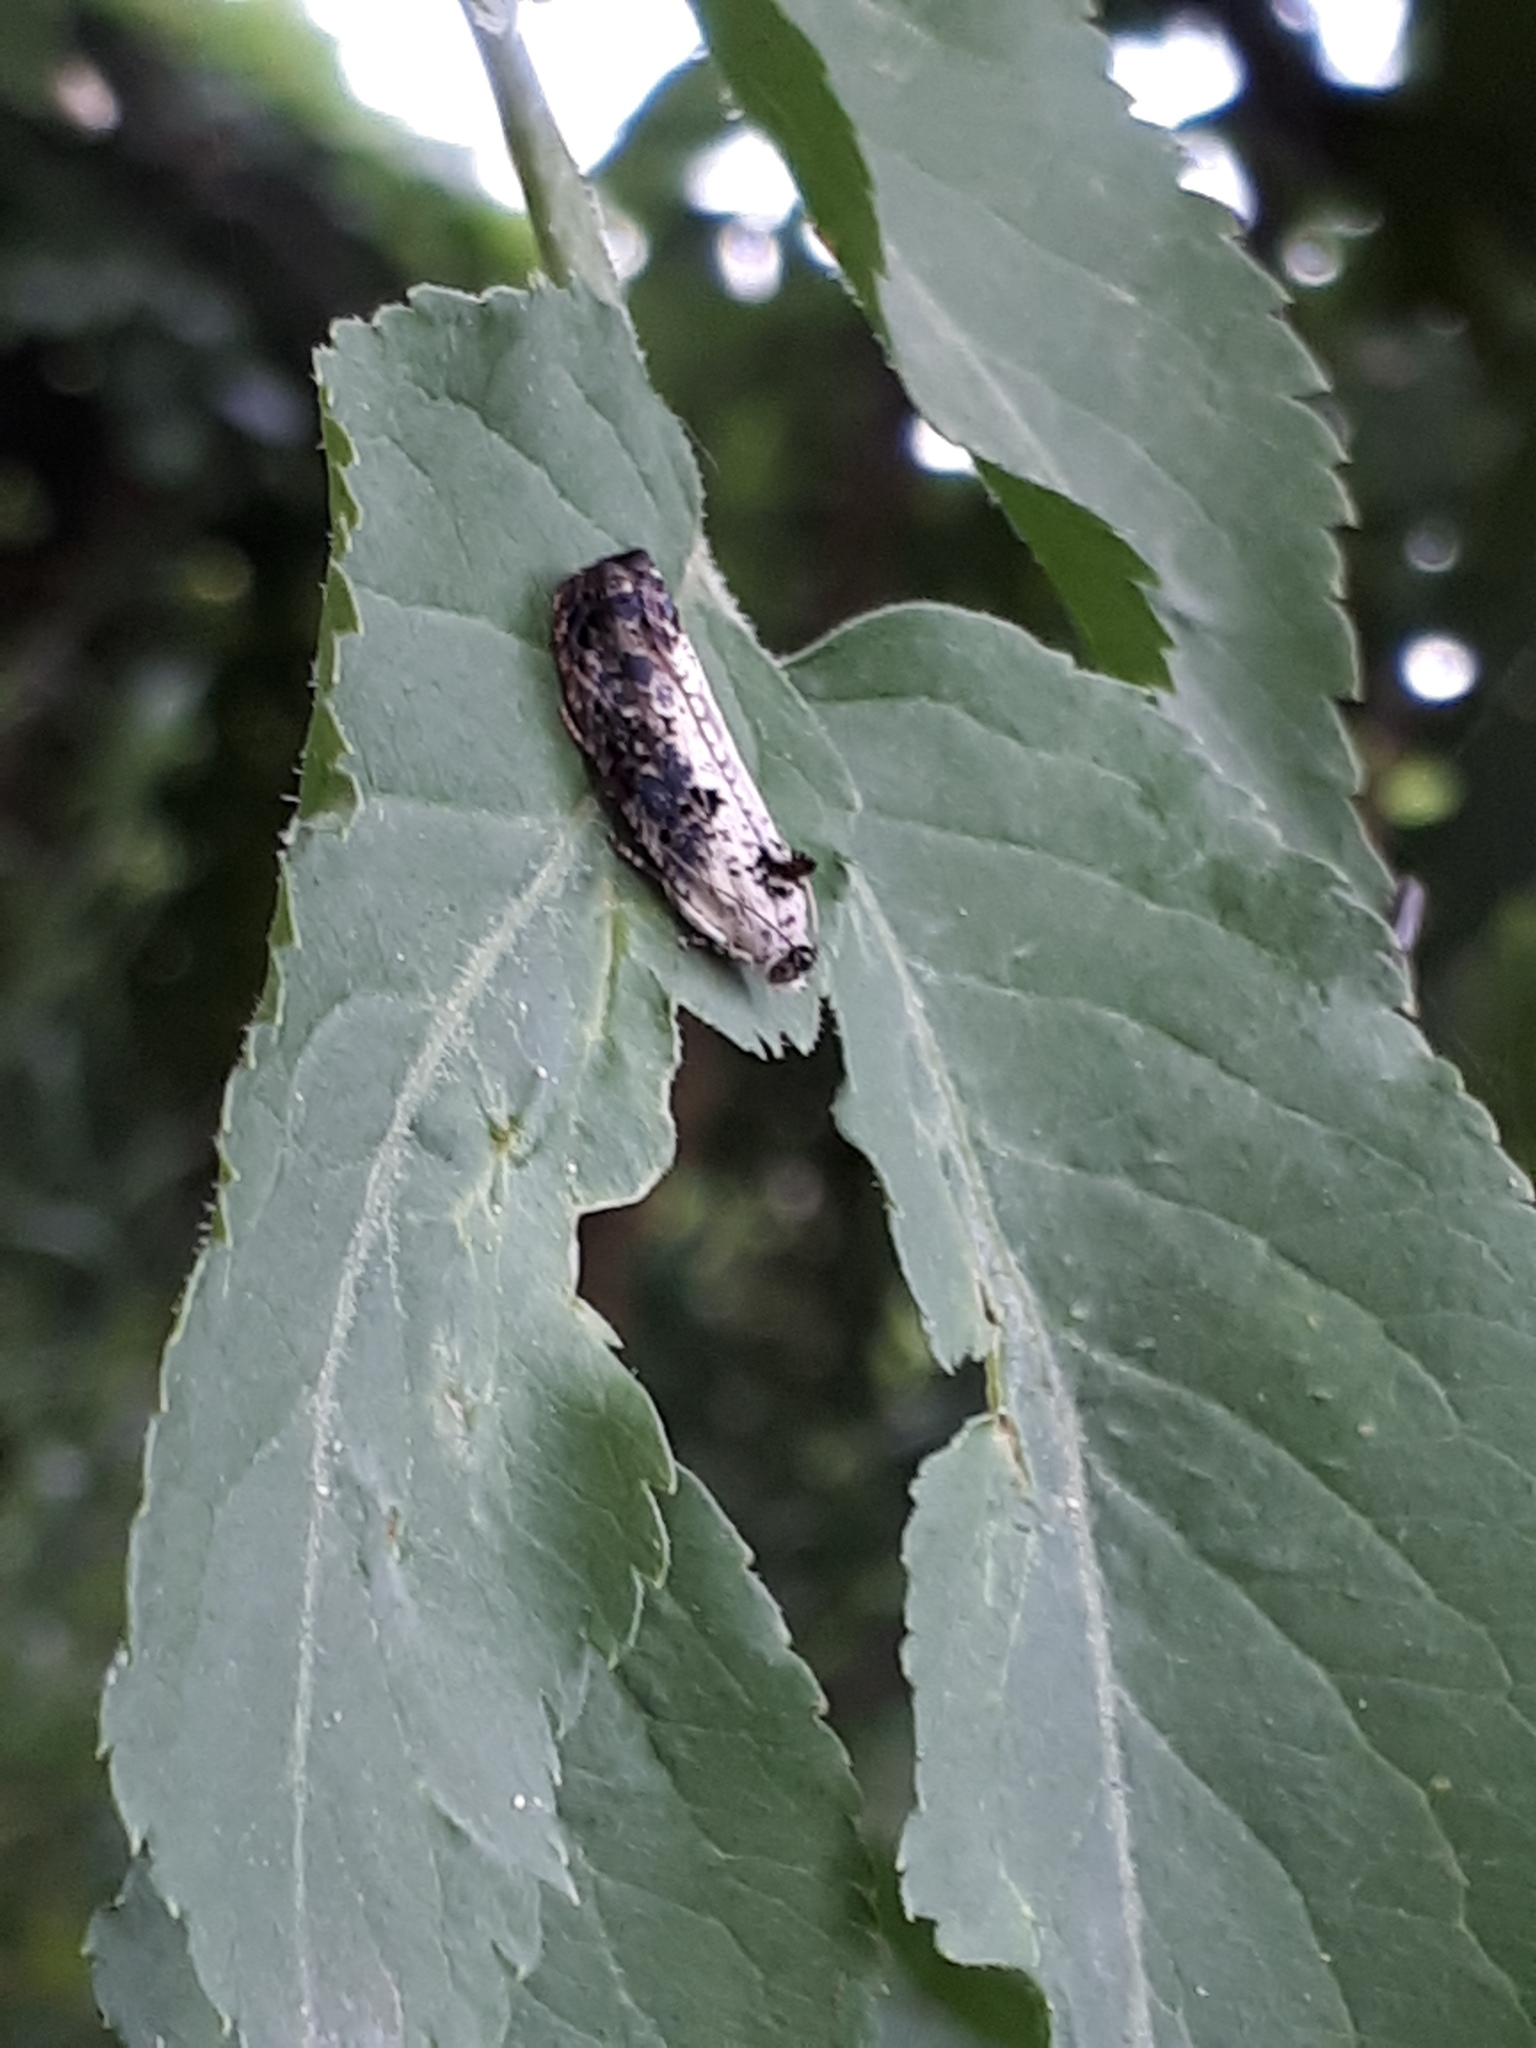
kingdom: Animalia
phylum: Arthropoda
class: Insecta
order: Lepidoptera
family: Tortricidae
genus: Hedya
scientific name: Hedya salicella
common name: Large tortricid moth
